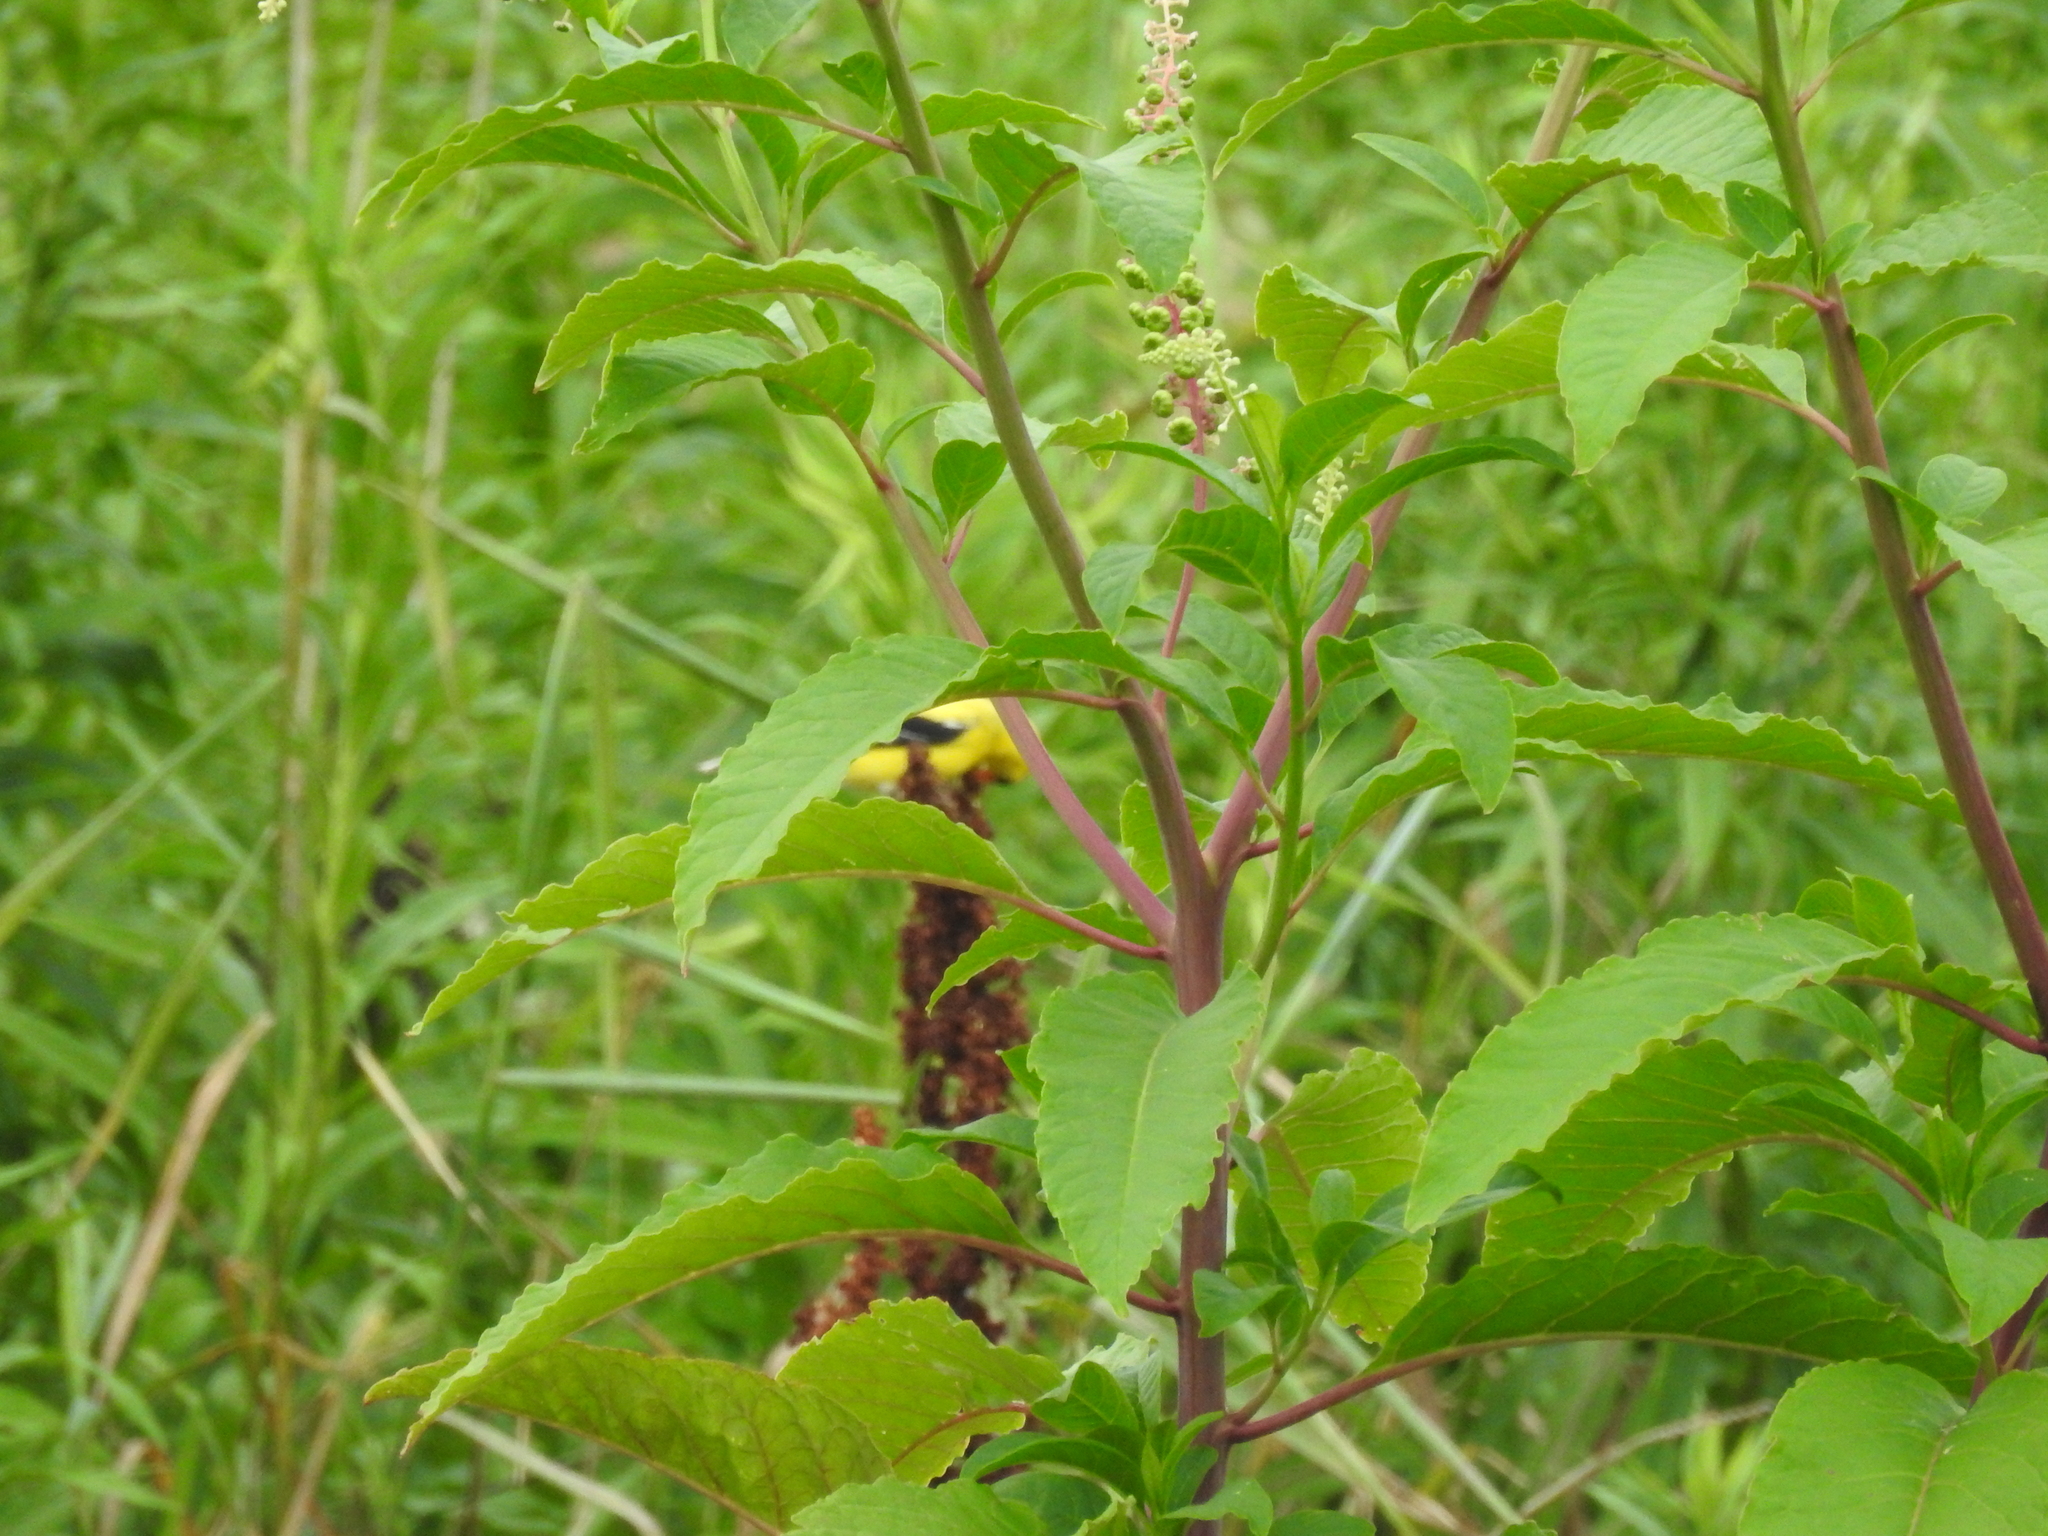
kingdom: Animalia
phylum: Chordata
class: Aves
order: Passeriformes
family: Fringillidae
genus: Spinus
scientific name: Spinus tristis
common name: American goldfinch
